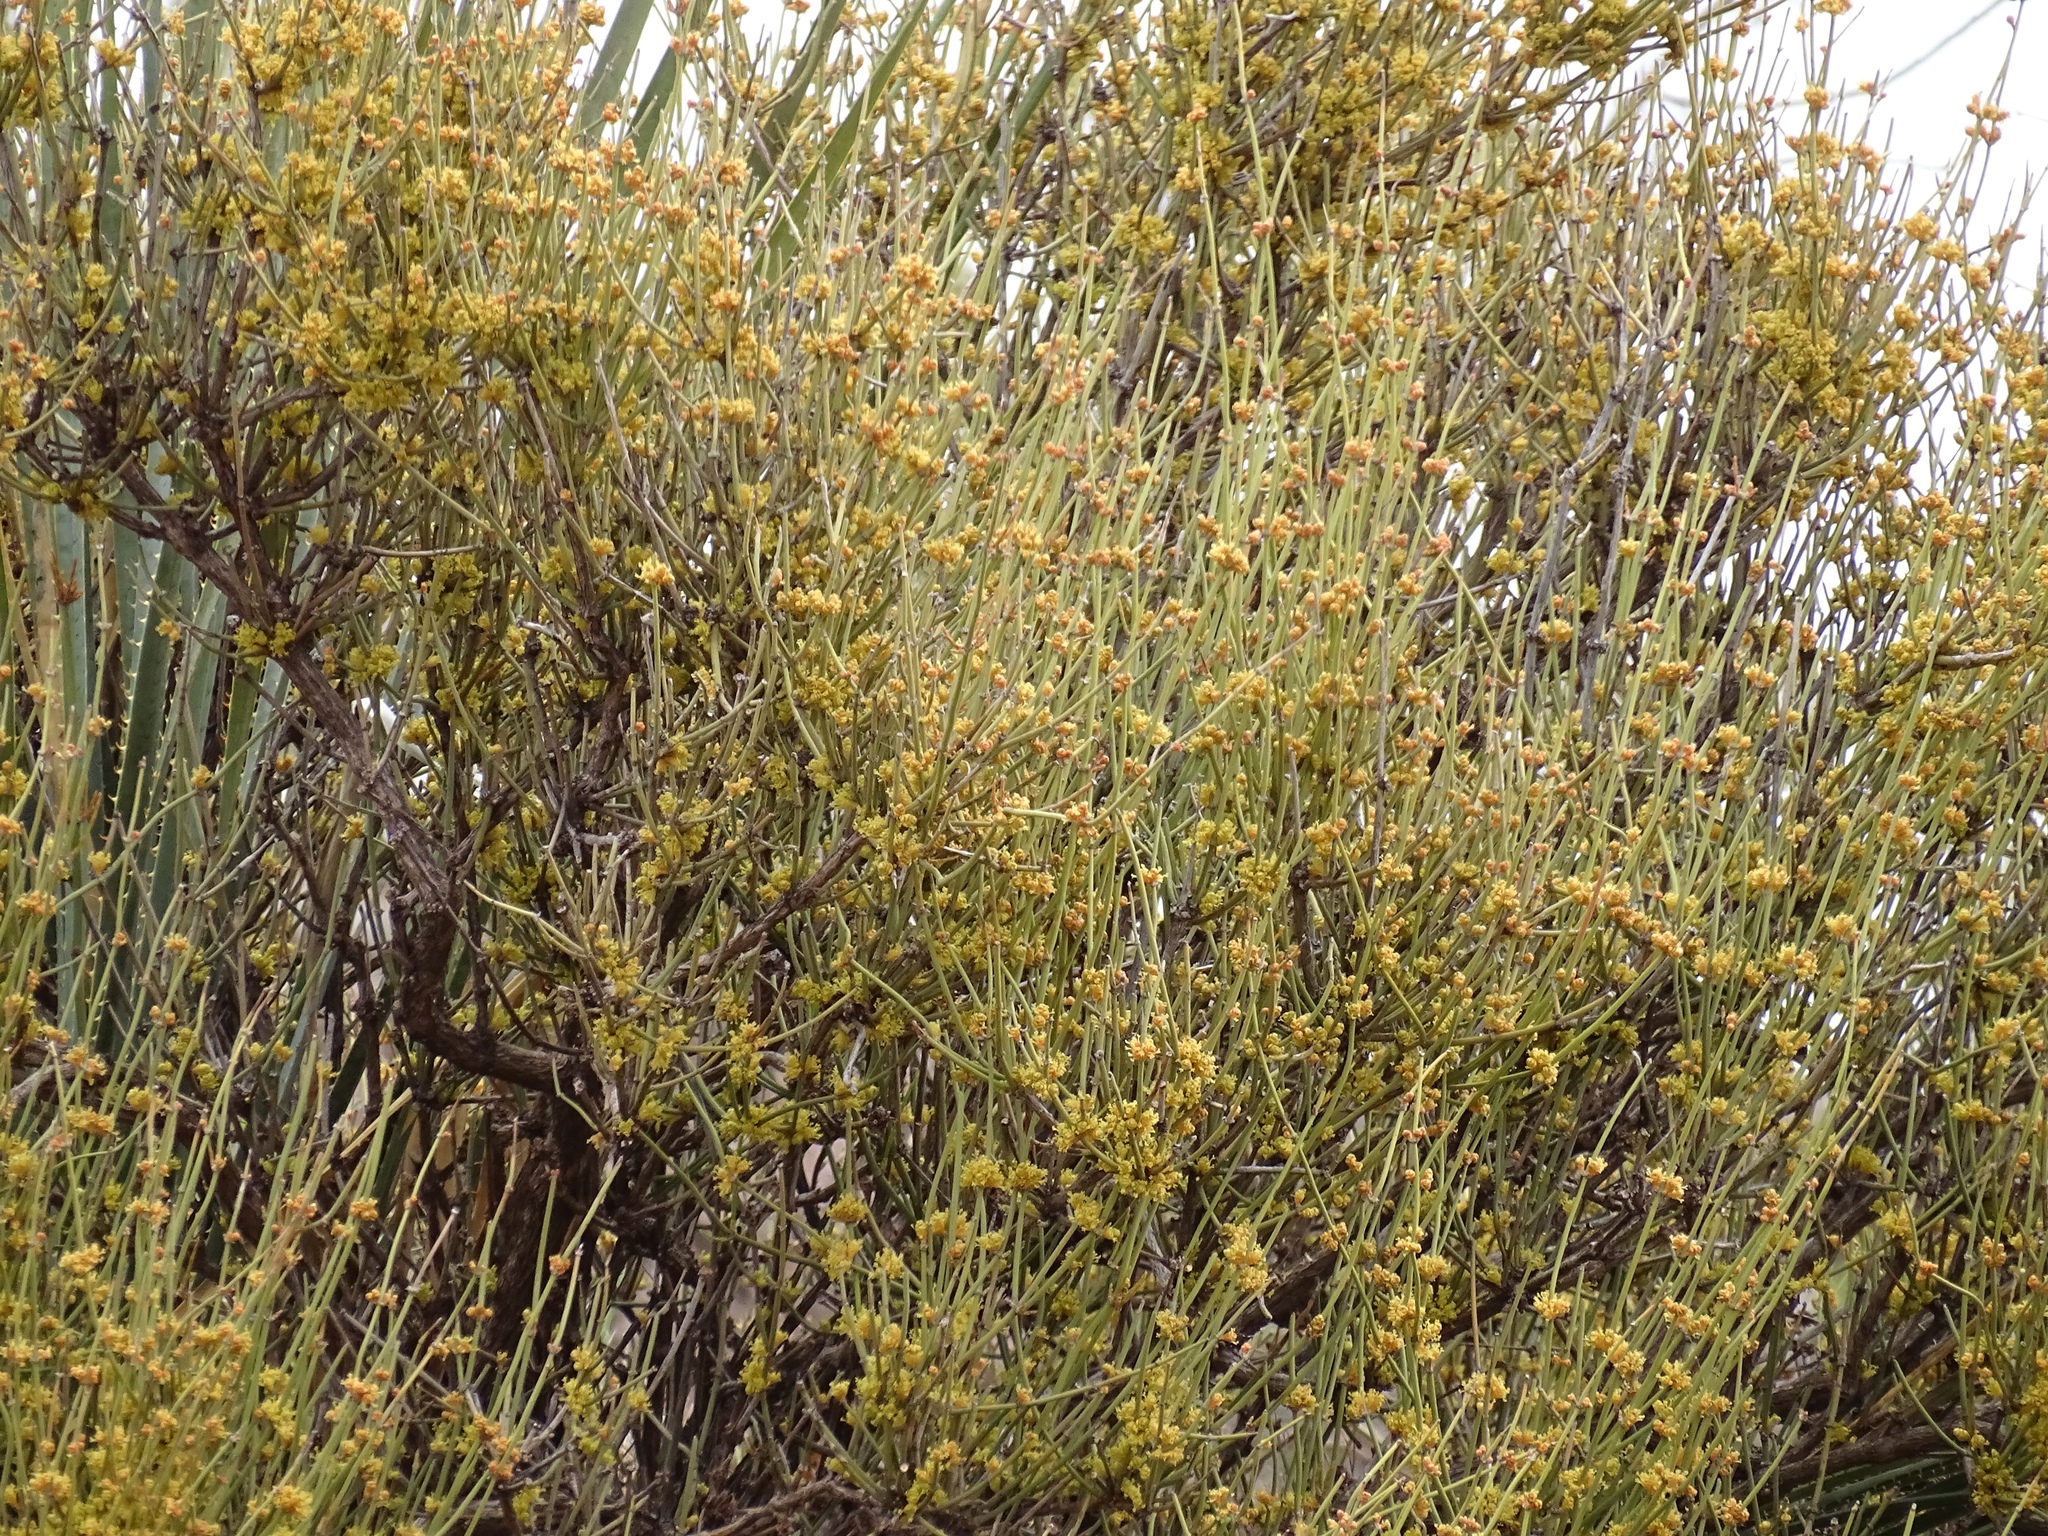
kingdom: Plantae
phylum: Tracheophyta
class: Gnetopsida
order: Ephedrales
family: Ephedraceae
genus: Ephedra
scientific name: Ephedra trifurca
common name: Mexican-tea
